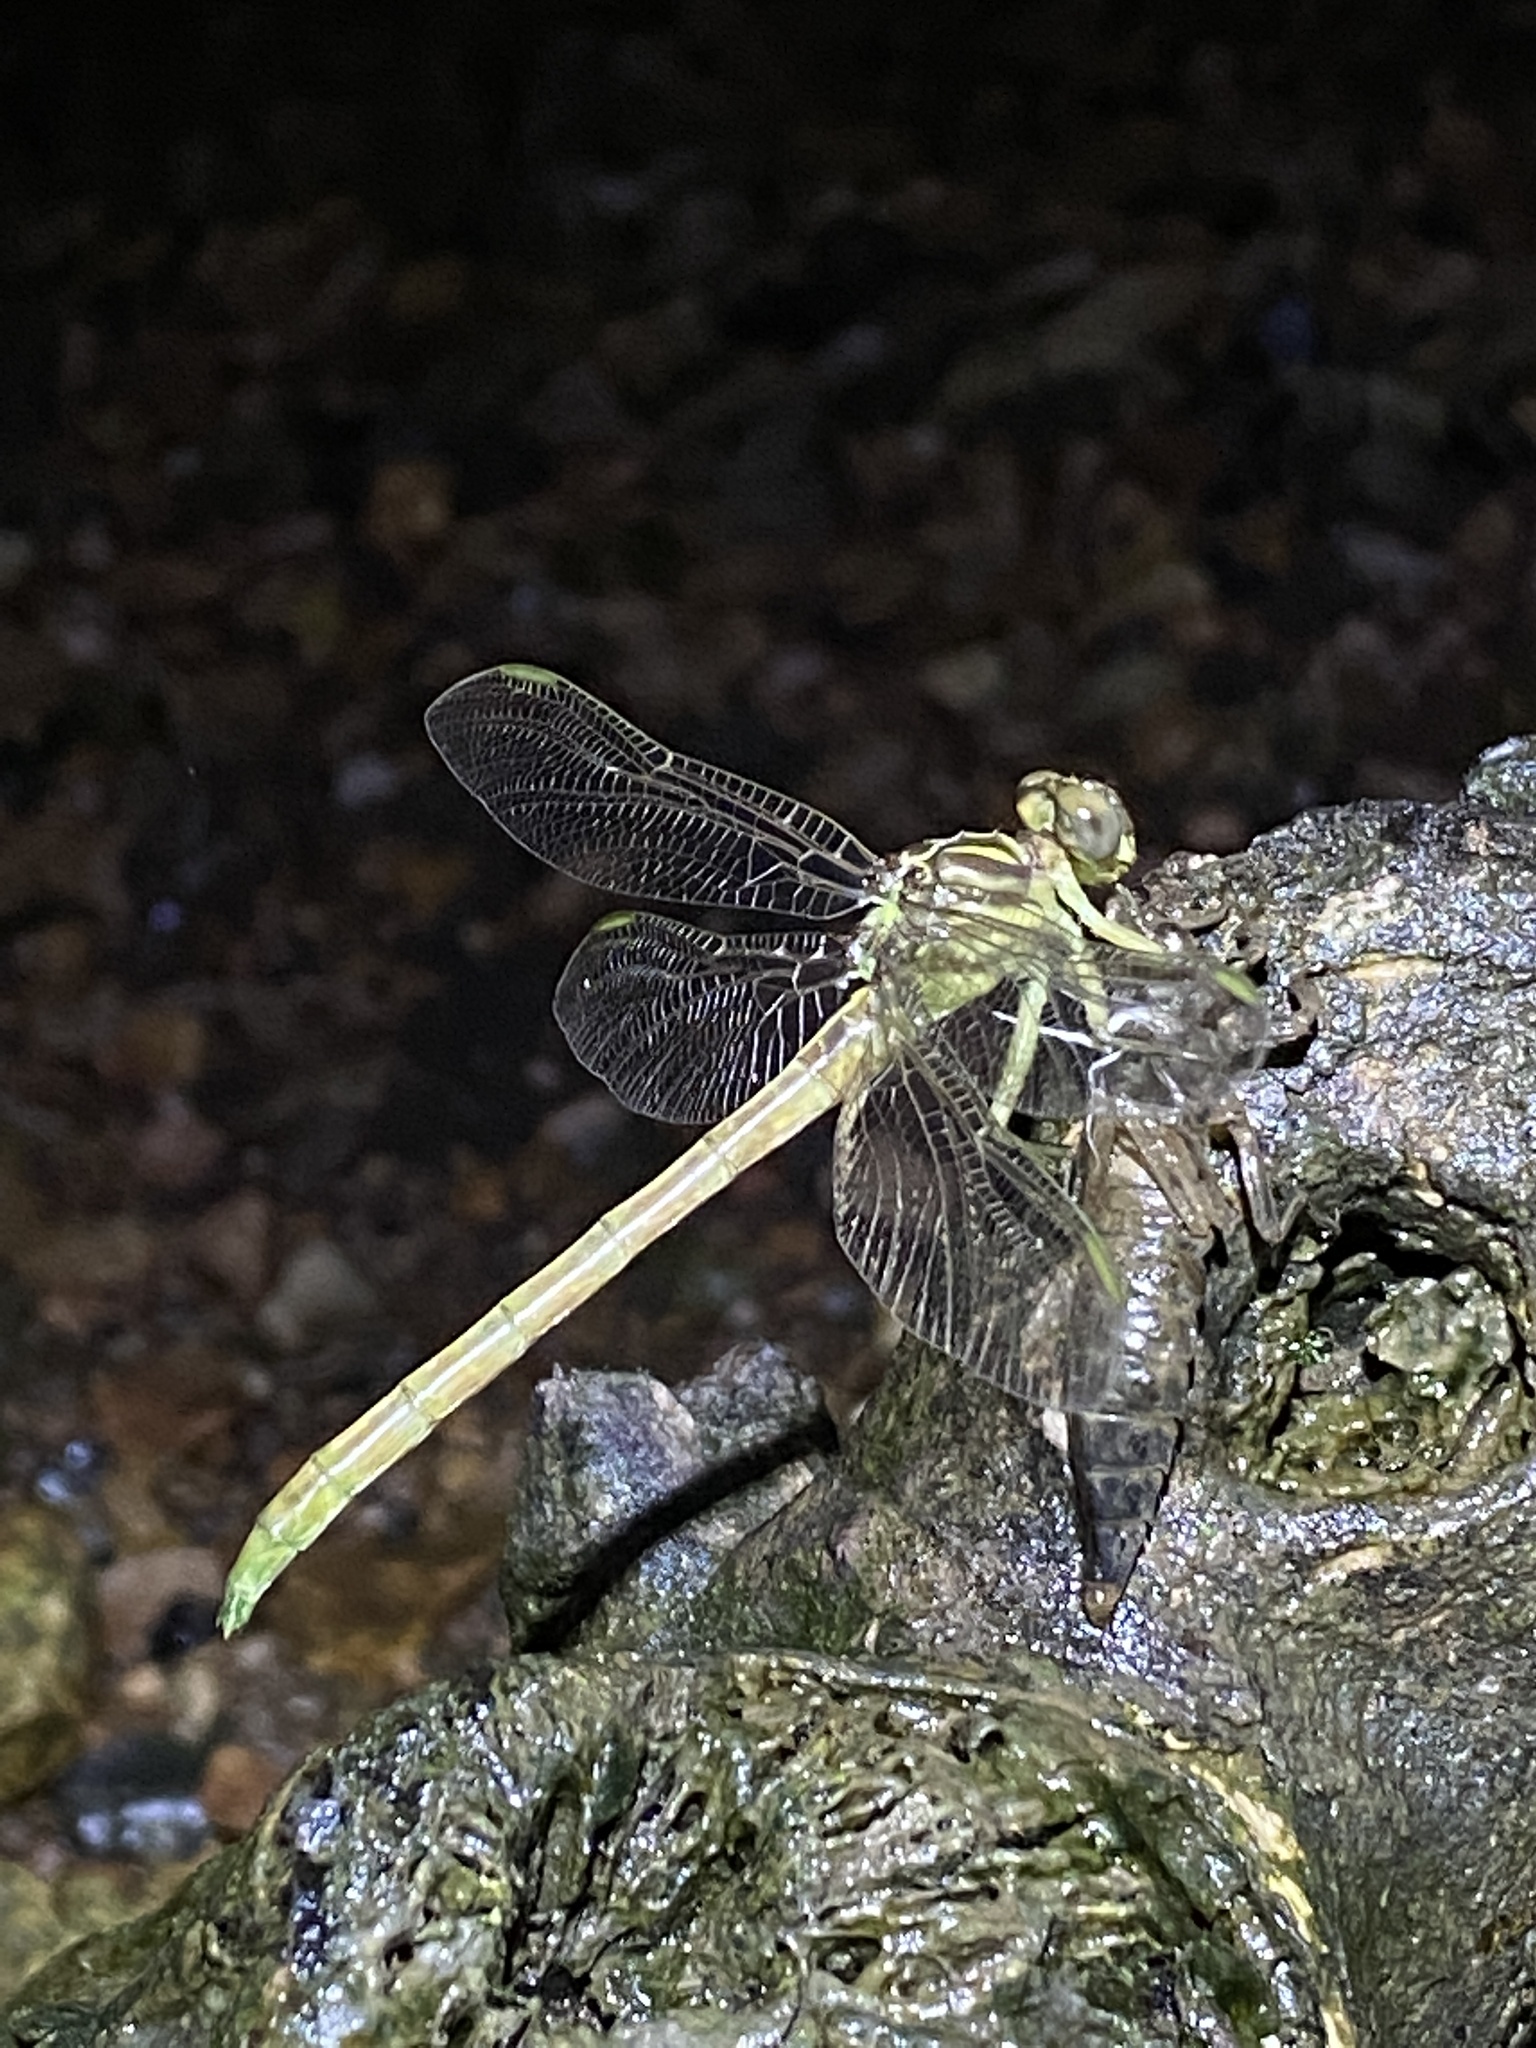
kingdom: Animalia
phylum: Arthropoda
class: Insecta
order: Odonata
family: Gomphidae
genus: Stylurus
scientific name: Stylurus notatus
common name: Elusive clubtail
